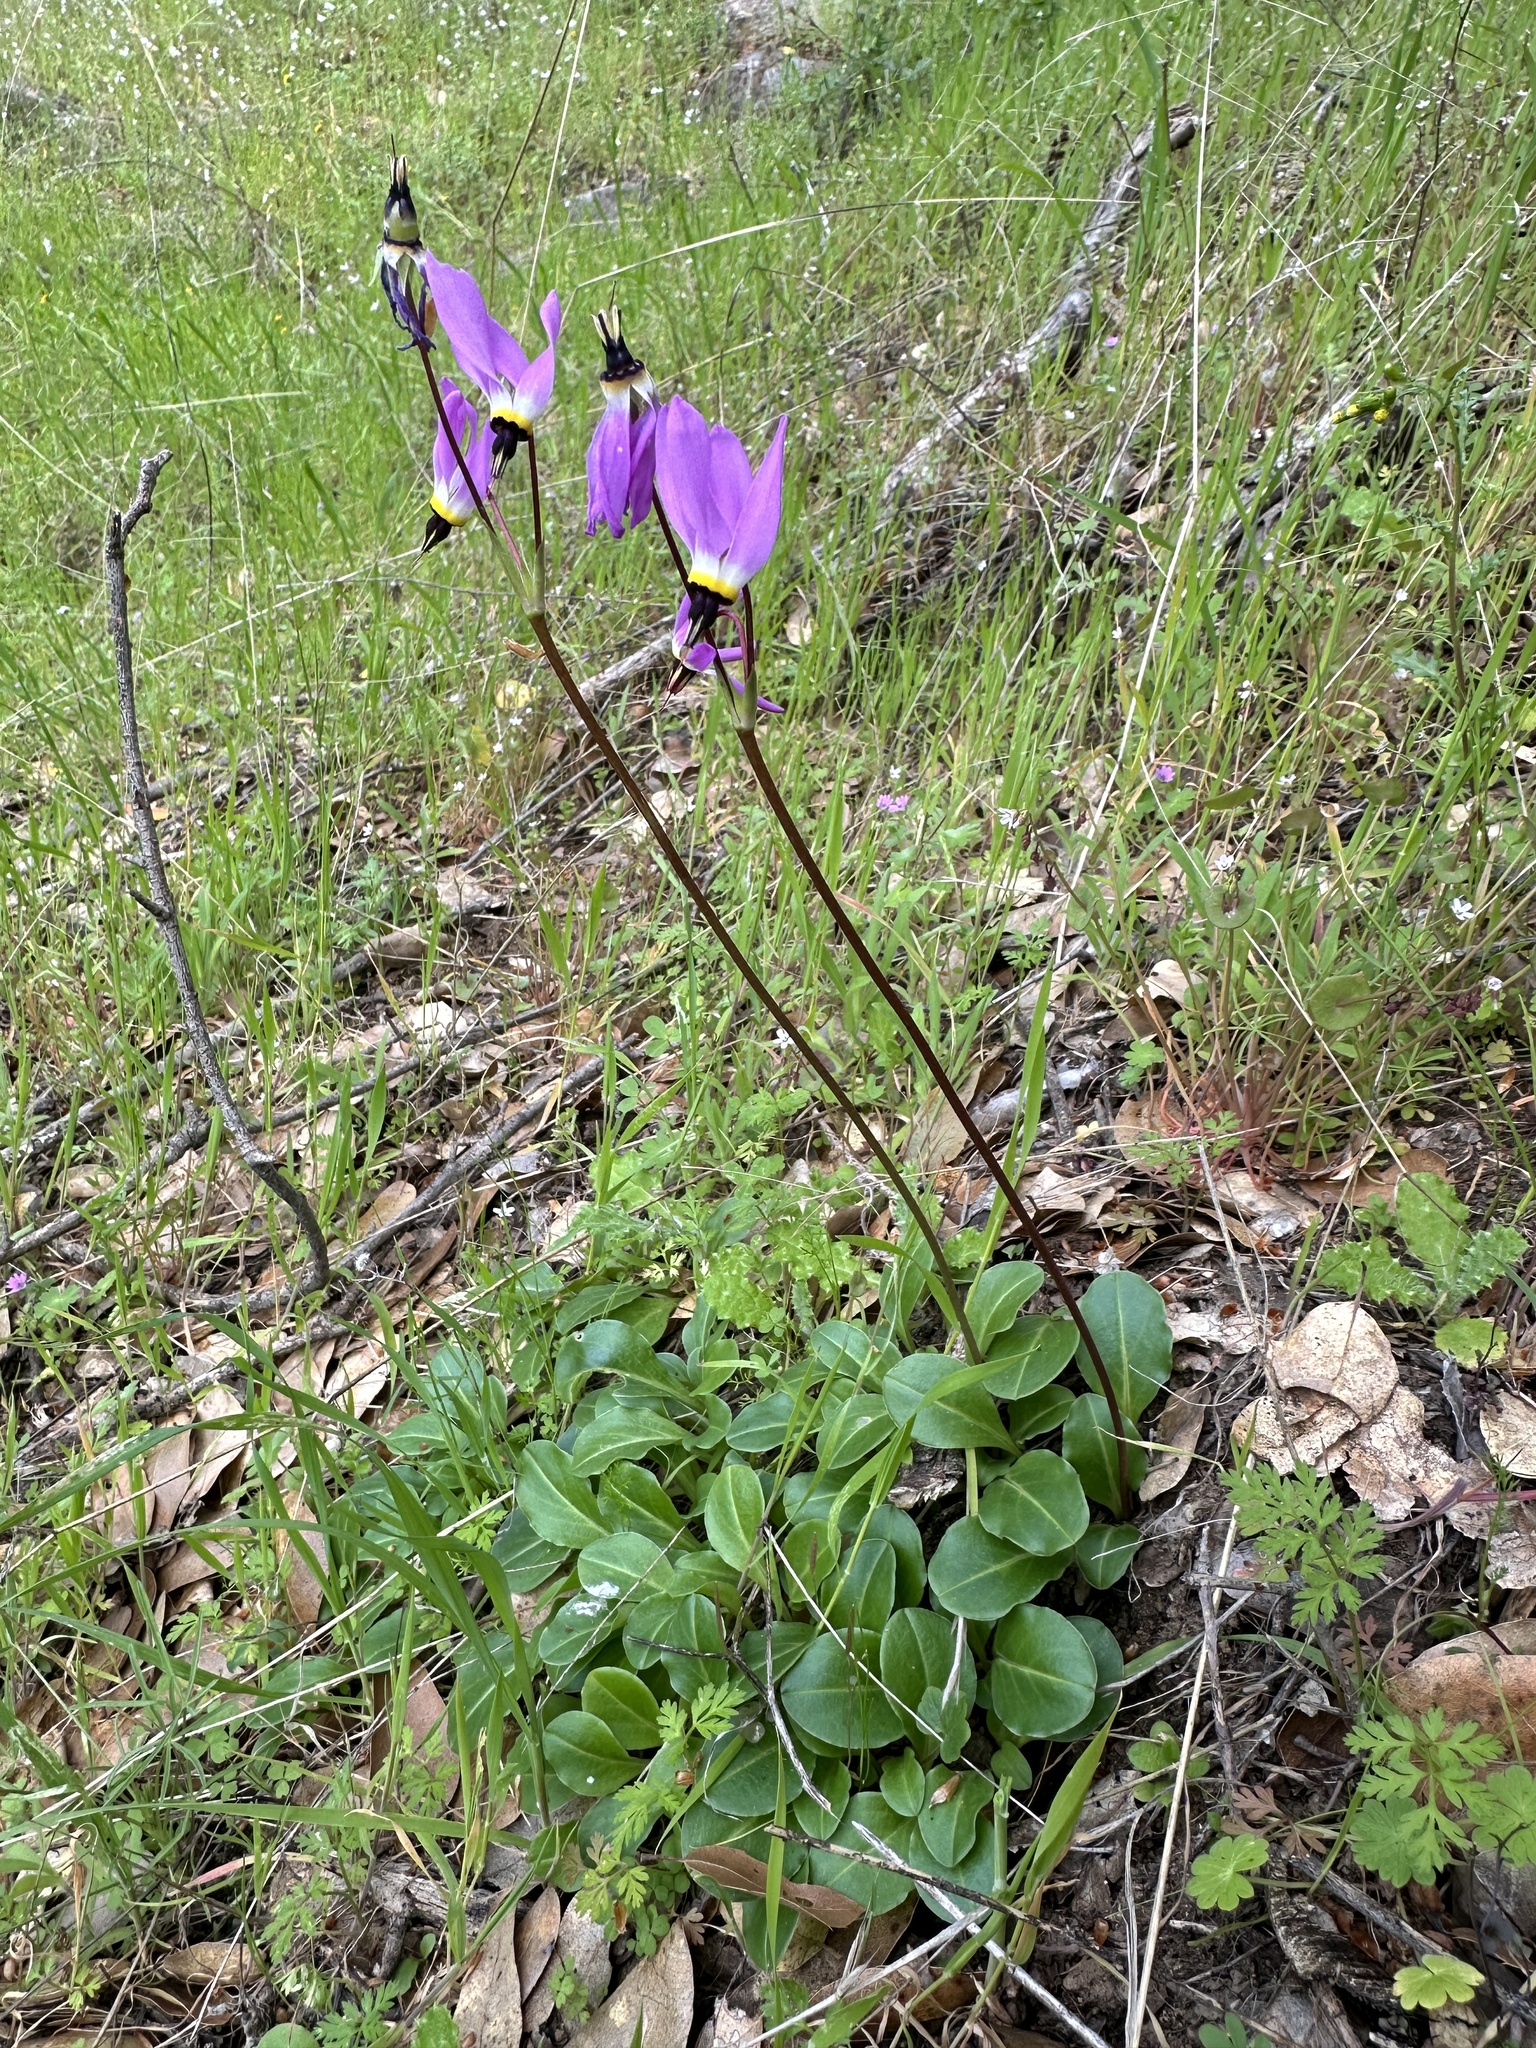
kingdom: Plantae
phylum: Tracheophyta
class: Magnoliopsida
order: Ericales
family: Primulaceae
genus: Dodecatheon
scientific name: Dodecatheon hendersonii
